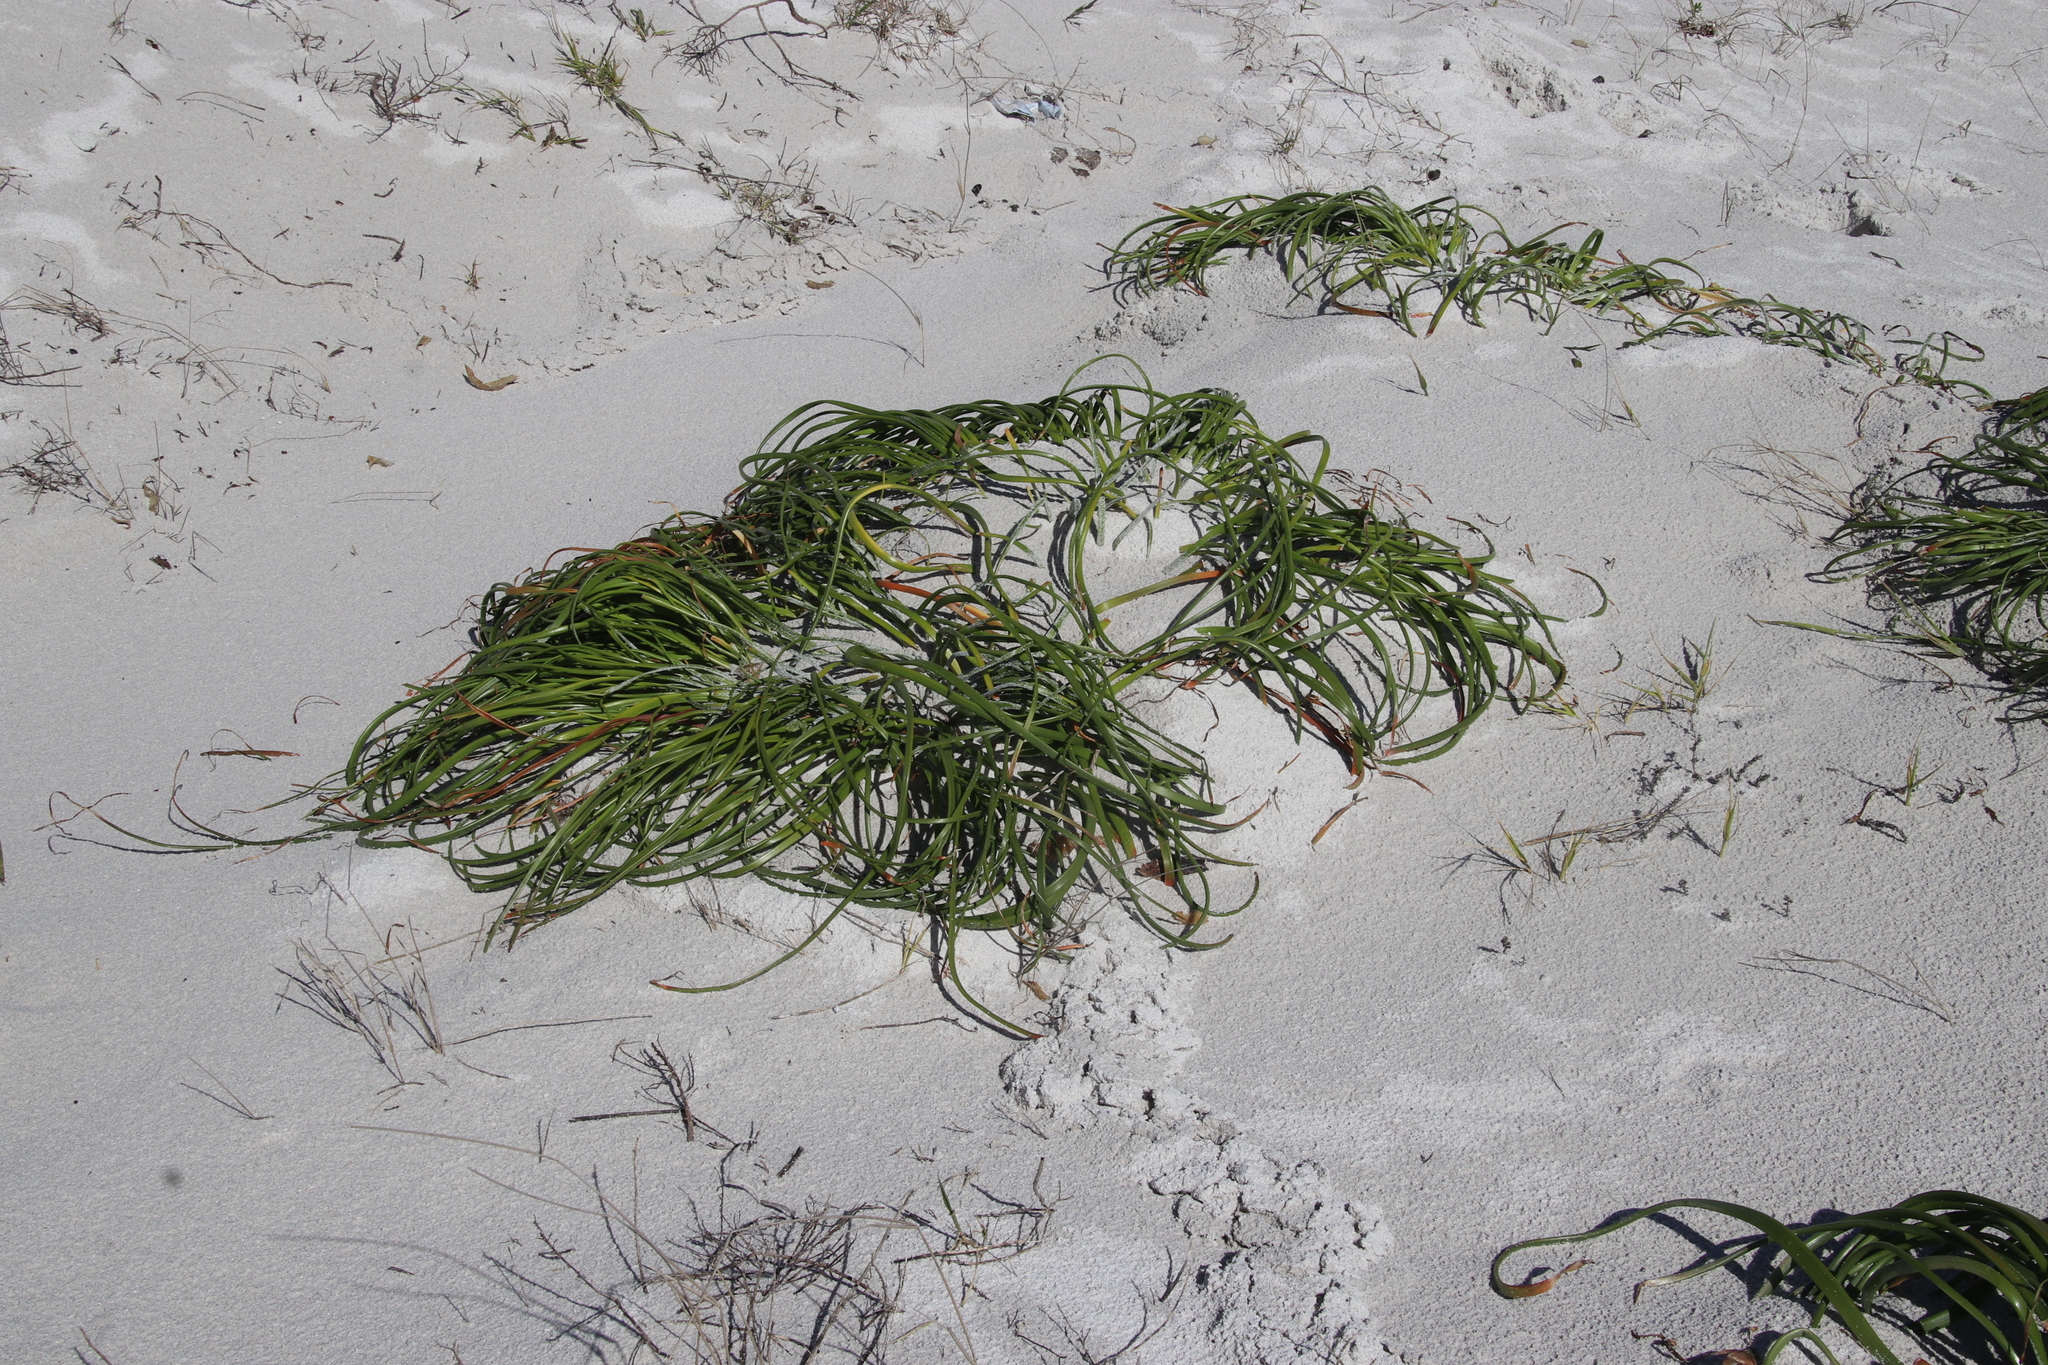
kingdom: Plantae
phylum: Tracheophyta
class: Liliopsida
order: Asparagales
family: Asphodelaceae
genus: Trachyandra
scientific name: Trachyandra divaricata
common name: Dune onionweed
